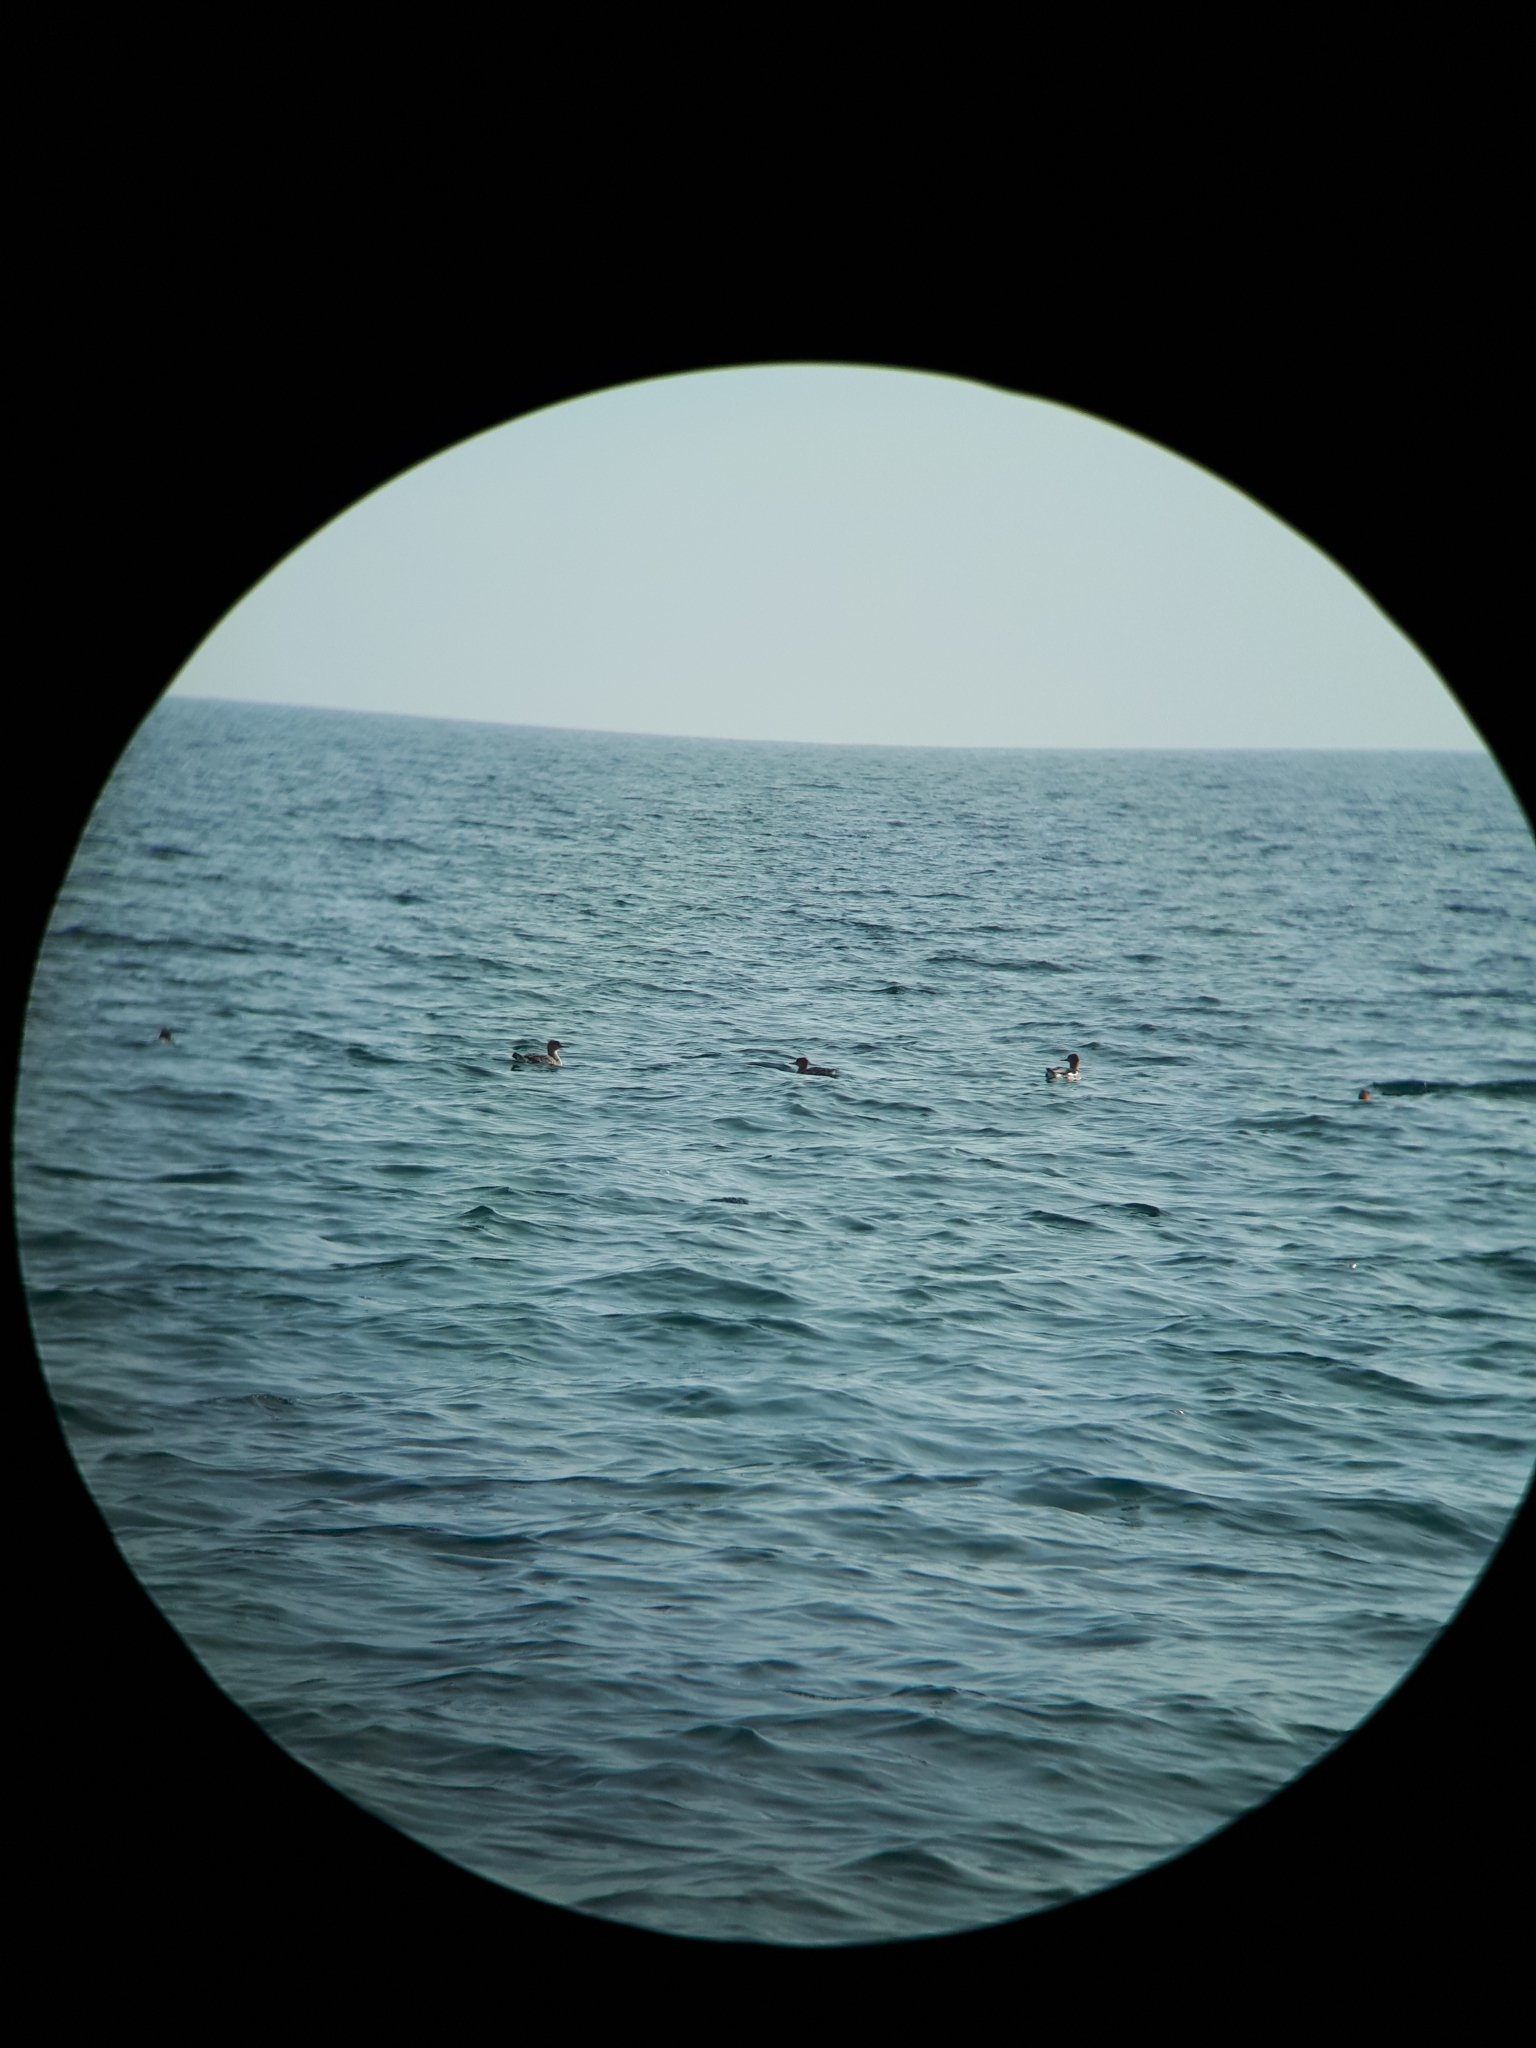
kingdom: Animalia
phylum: Chordata
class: Aves
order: Anseriformes
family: Anatidae
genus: Mergus
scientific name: Mergus merganser
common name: Common merganser
